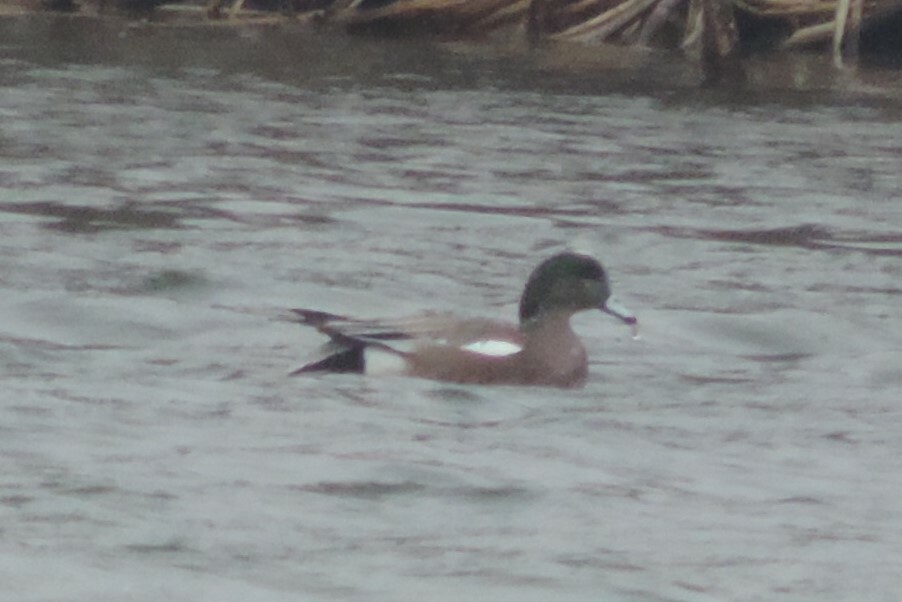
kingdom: Animalia
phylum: Chordata
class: Aves
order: Anseriformes
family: Anatidae
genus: Mareca
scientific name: Mareca americana
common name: American wigeon
